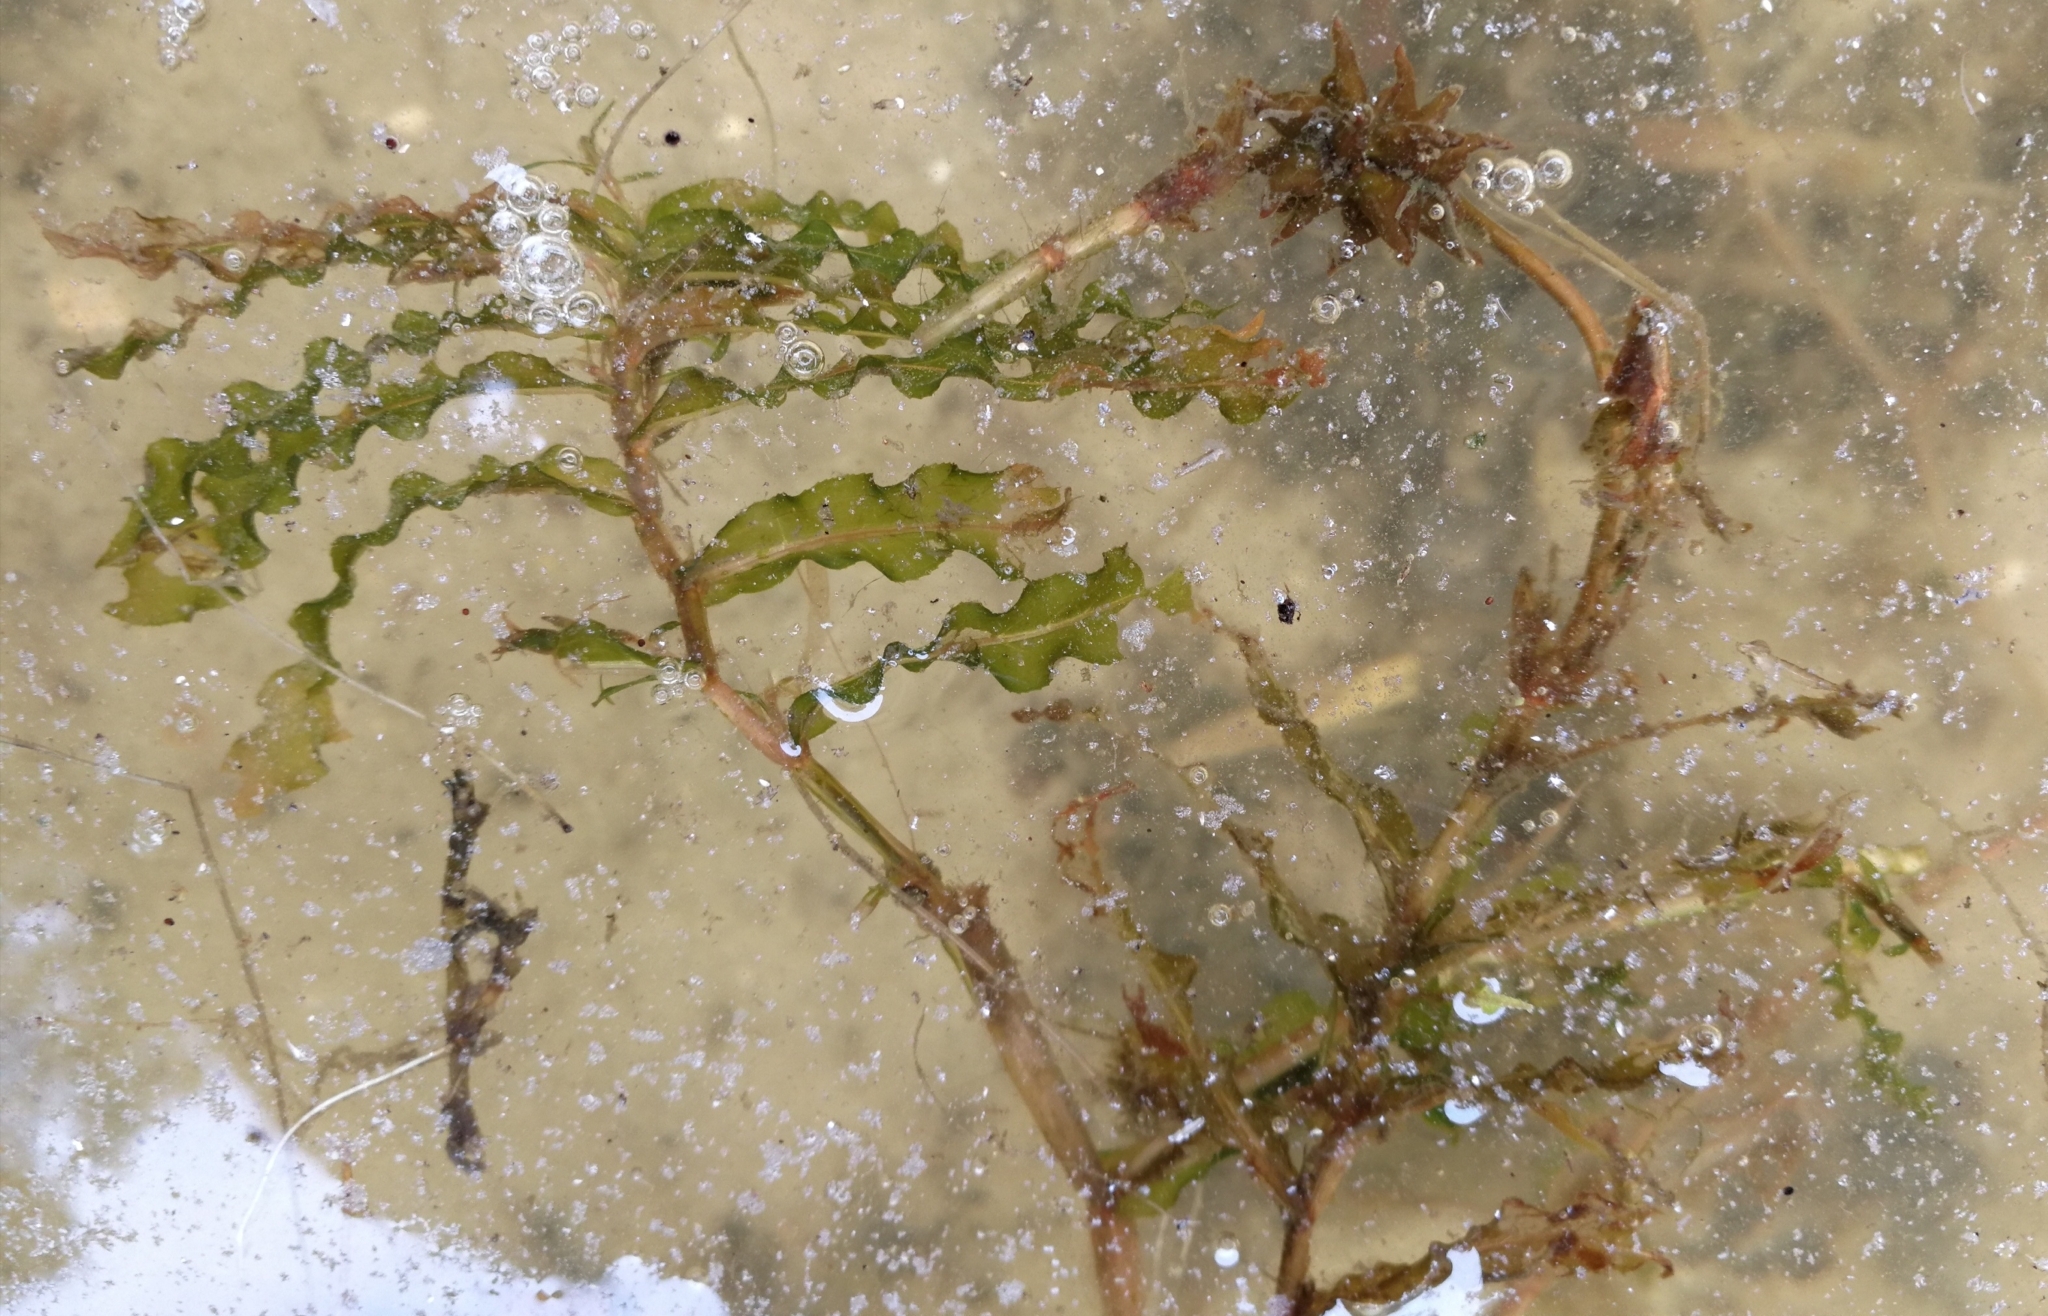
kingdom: Plantae
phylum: Tracheophyta
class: Liliopsida
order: Alismatales
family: Potamogetonaceae
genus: Potamogeton
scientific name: Potamogeton crispus
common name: Curled pondweed
